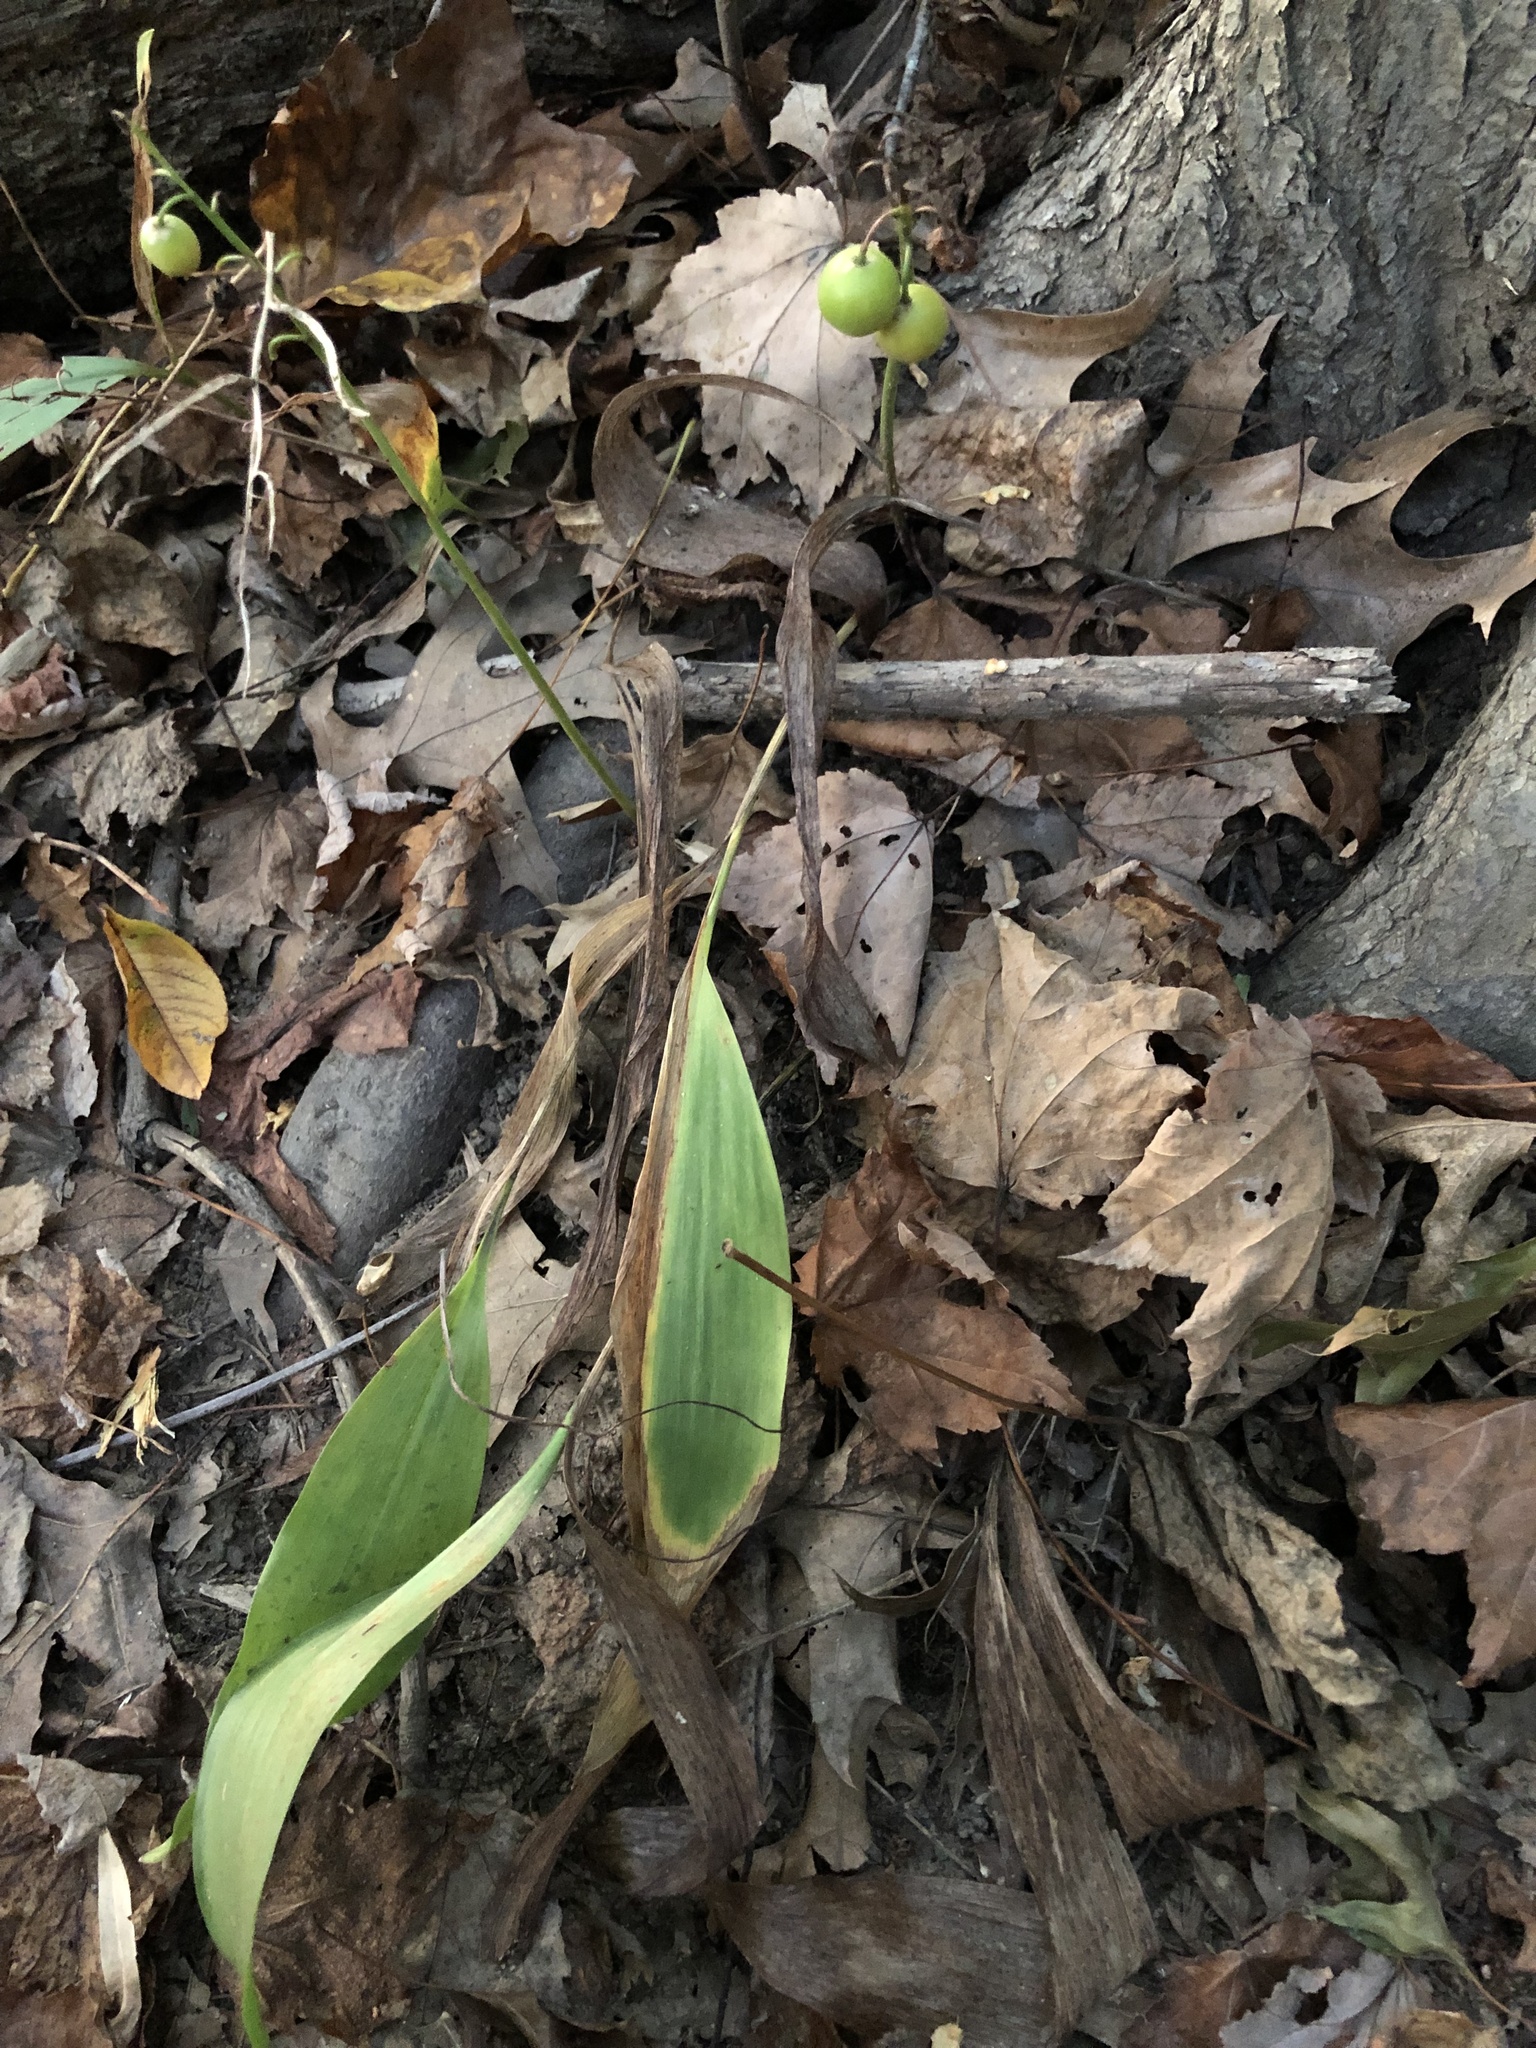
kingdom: Plantae
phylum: Tracheophyta
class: Liliopsida
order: Asparagales
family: Asparagaceae
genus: Convallaria
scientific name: Convallaria majalis
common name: Lily-of-the-valley
